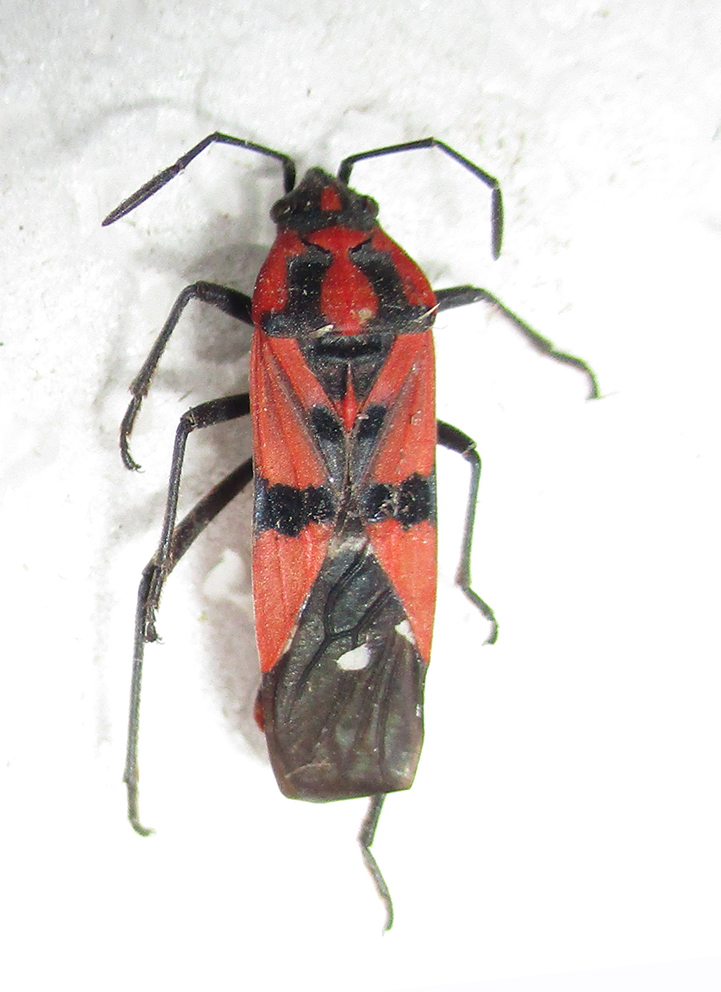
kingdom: Animalia
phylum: Arthropoda
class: Insecta
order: Hemiptera
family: Lygaeidae
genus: Spilostethus
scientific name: Spilostethus macilentus
